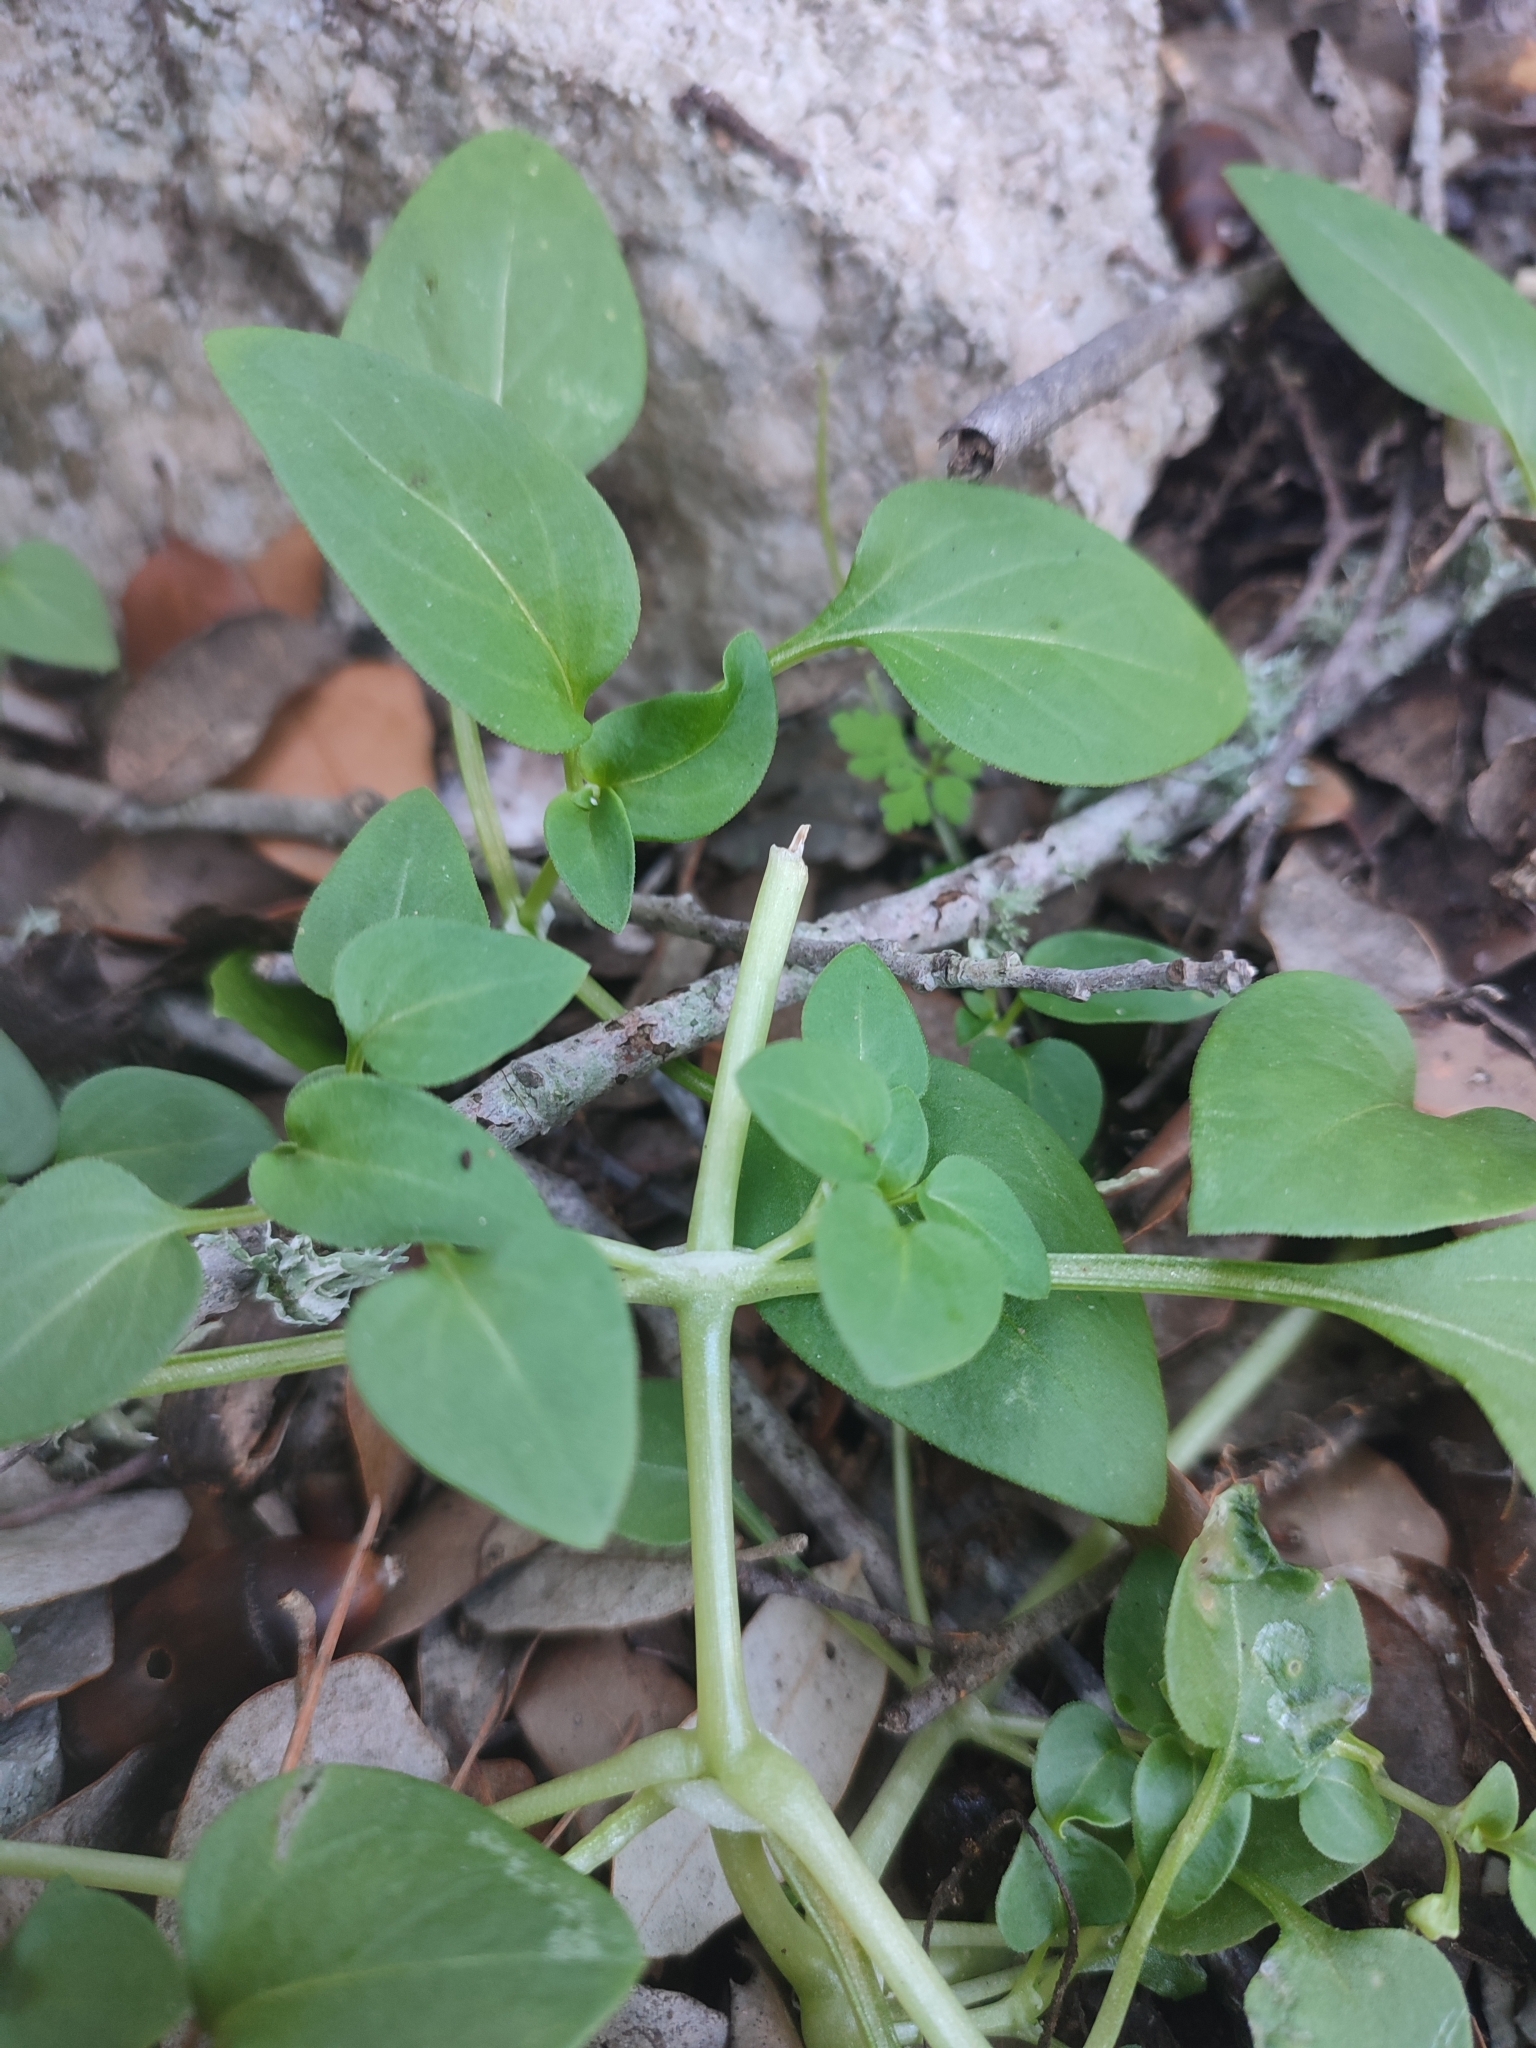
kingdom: Plantae
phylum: Tracheophyta
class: Magnoliopsida
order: Gentianales
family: Rubiaceae
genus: Theligonum
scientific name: Theligonum cynocrambe
